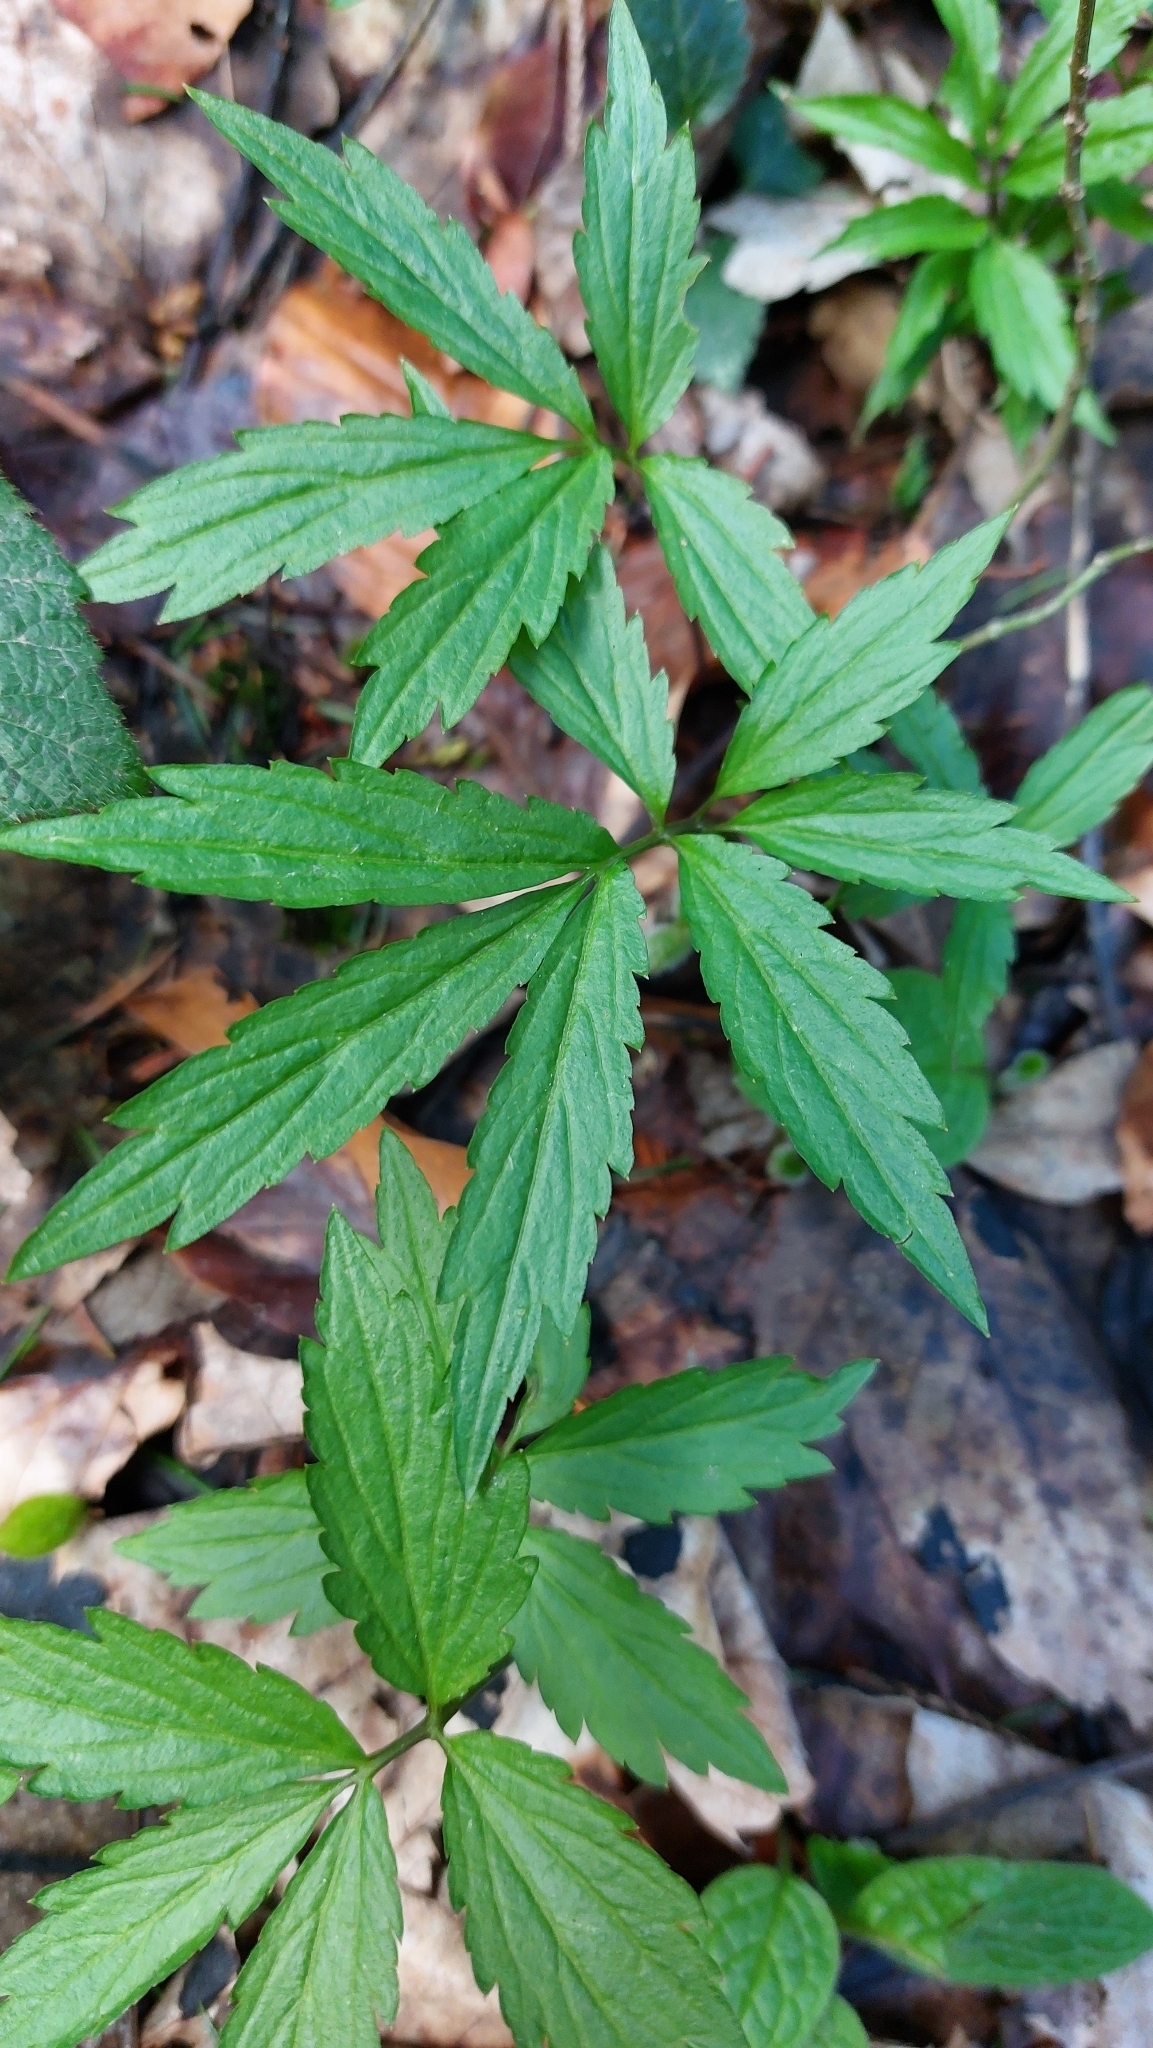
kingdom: Plantae
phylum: Tracheophyta
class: Magnoliopsida
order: Brassicales
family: Brassicaceae
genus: Cardamine
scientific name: Cardamine bulbifera
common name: Coralroot bittercress
